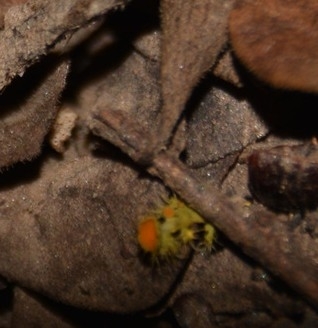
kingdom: Fungi
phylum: Ascomycota
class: Lecanoromycetes
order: Teloschistales
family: Teloschistaceae
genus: Niorma
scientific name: Niorma chrysophthalma
